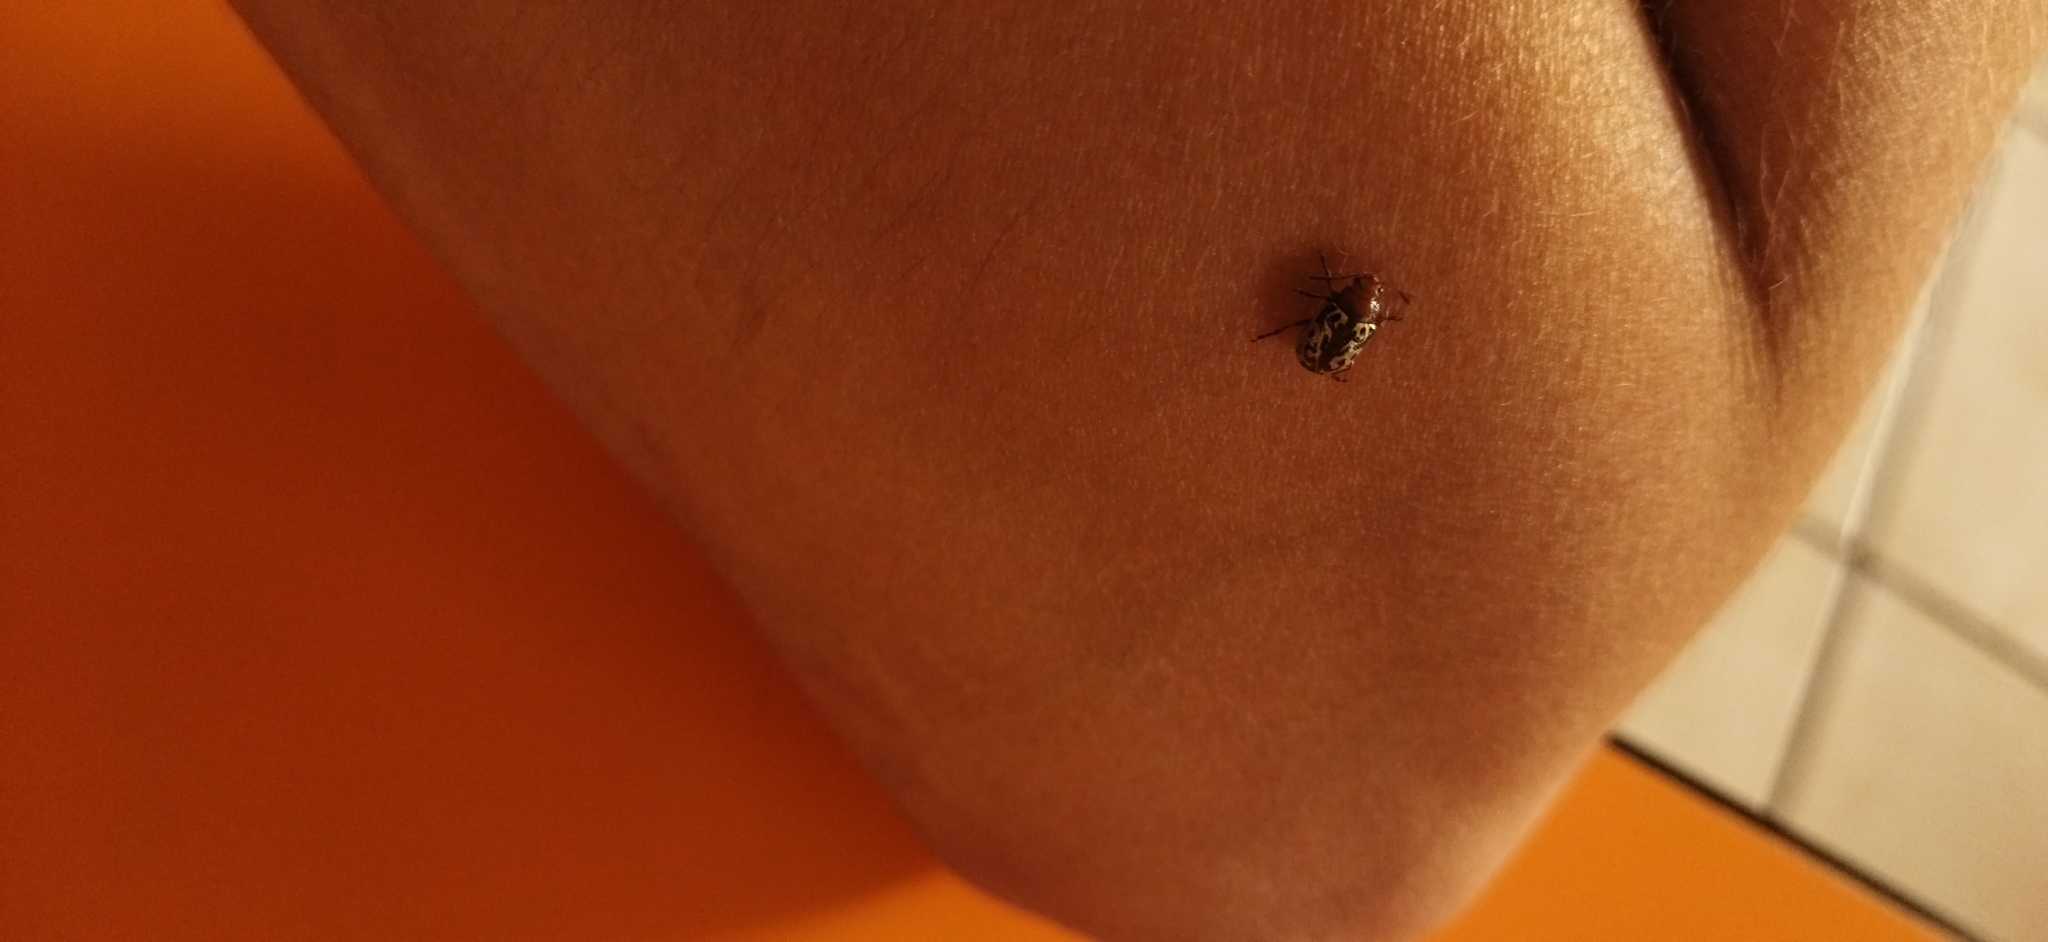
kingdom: Animalia
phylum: Arthropoda
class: Insecta
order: Coleoptera
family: Chrysomelidae
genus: Calligrapha
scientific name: Calligrapha
